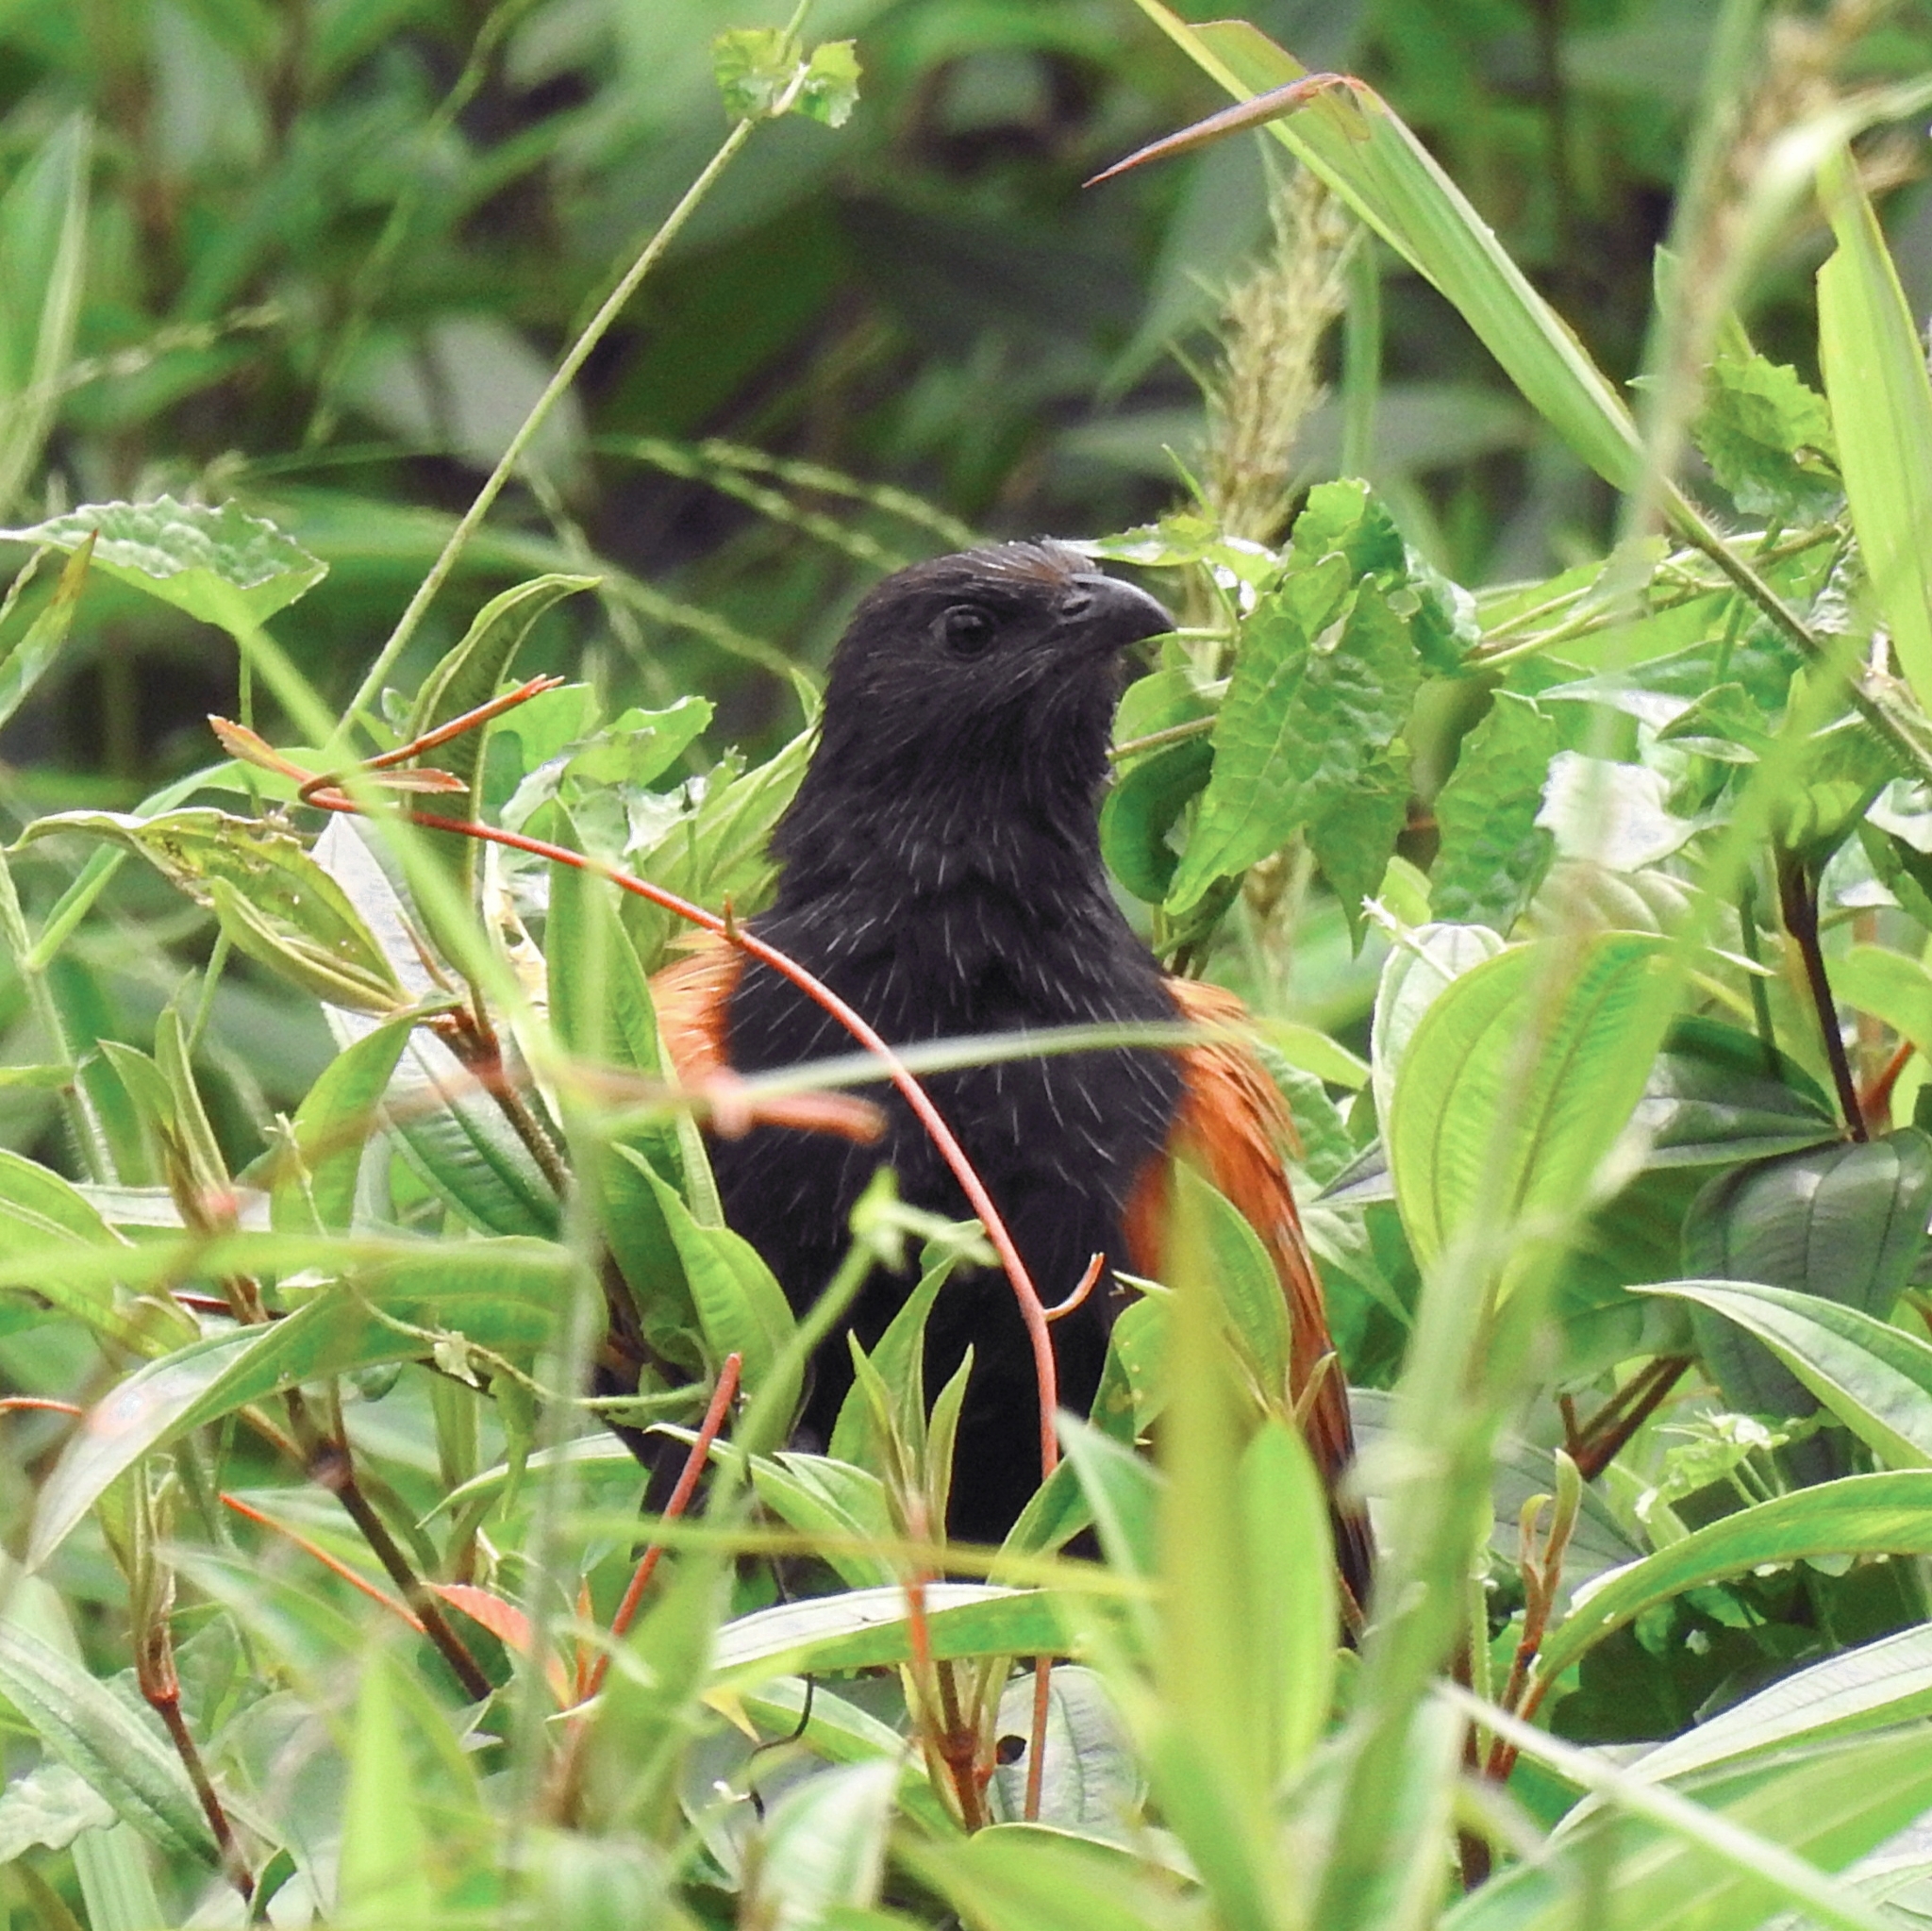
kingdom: Animalia
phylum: Chordata
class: Aves
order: Cuculiformes
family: Cuculidae
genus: Centropus
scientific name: Centropus bengalensis
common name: Lesser coucal
